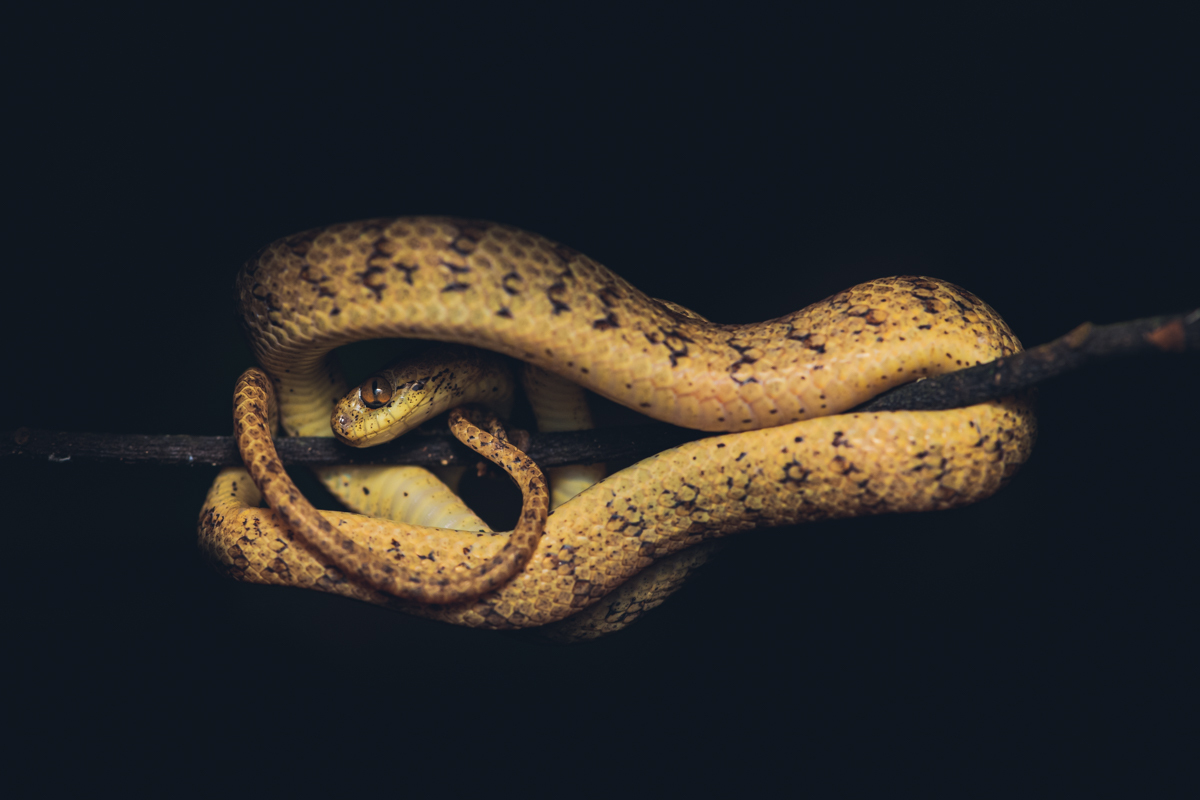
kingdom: Animalia
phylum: Chordata
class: Squamata
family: Pareidae
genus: Pareas
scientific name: Pareas formosensis
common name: Formosa slug snake
